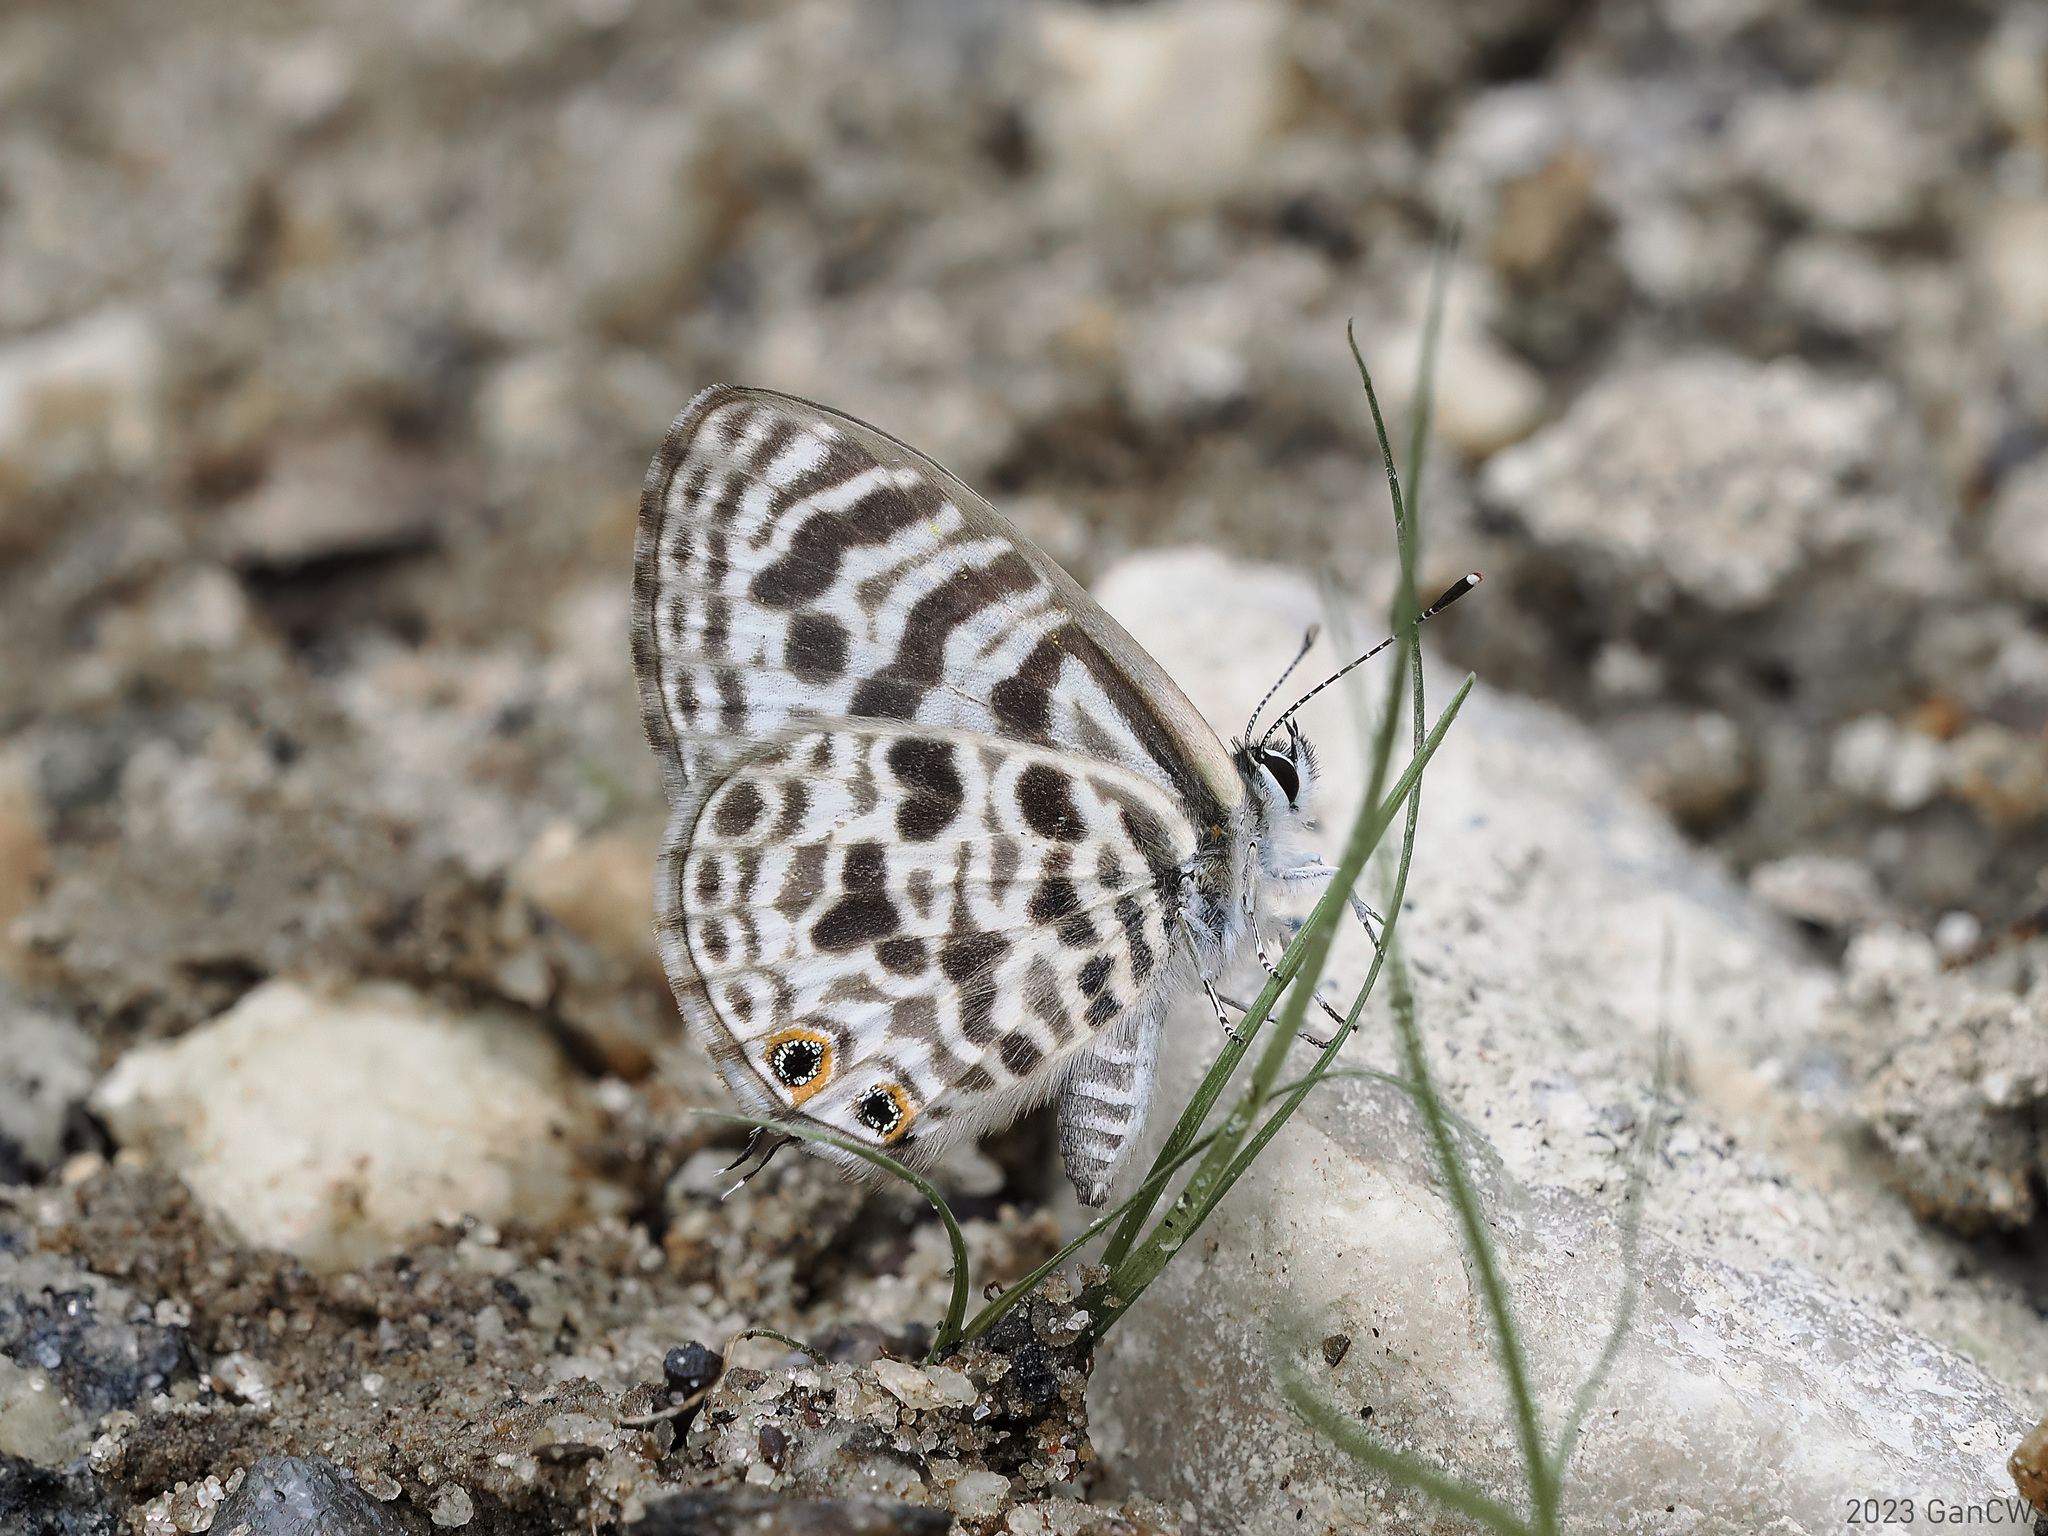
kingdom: Animalia
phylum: Arthropoda
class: Insecta
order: Lepidoptera
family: Lycaenidae
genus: Leptotes
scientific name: Leptotes plinius
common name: Zebra blue
